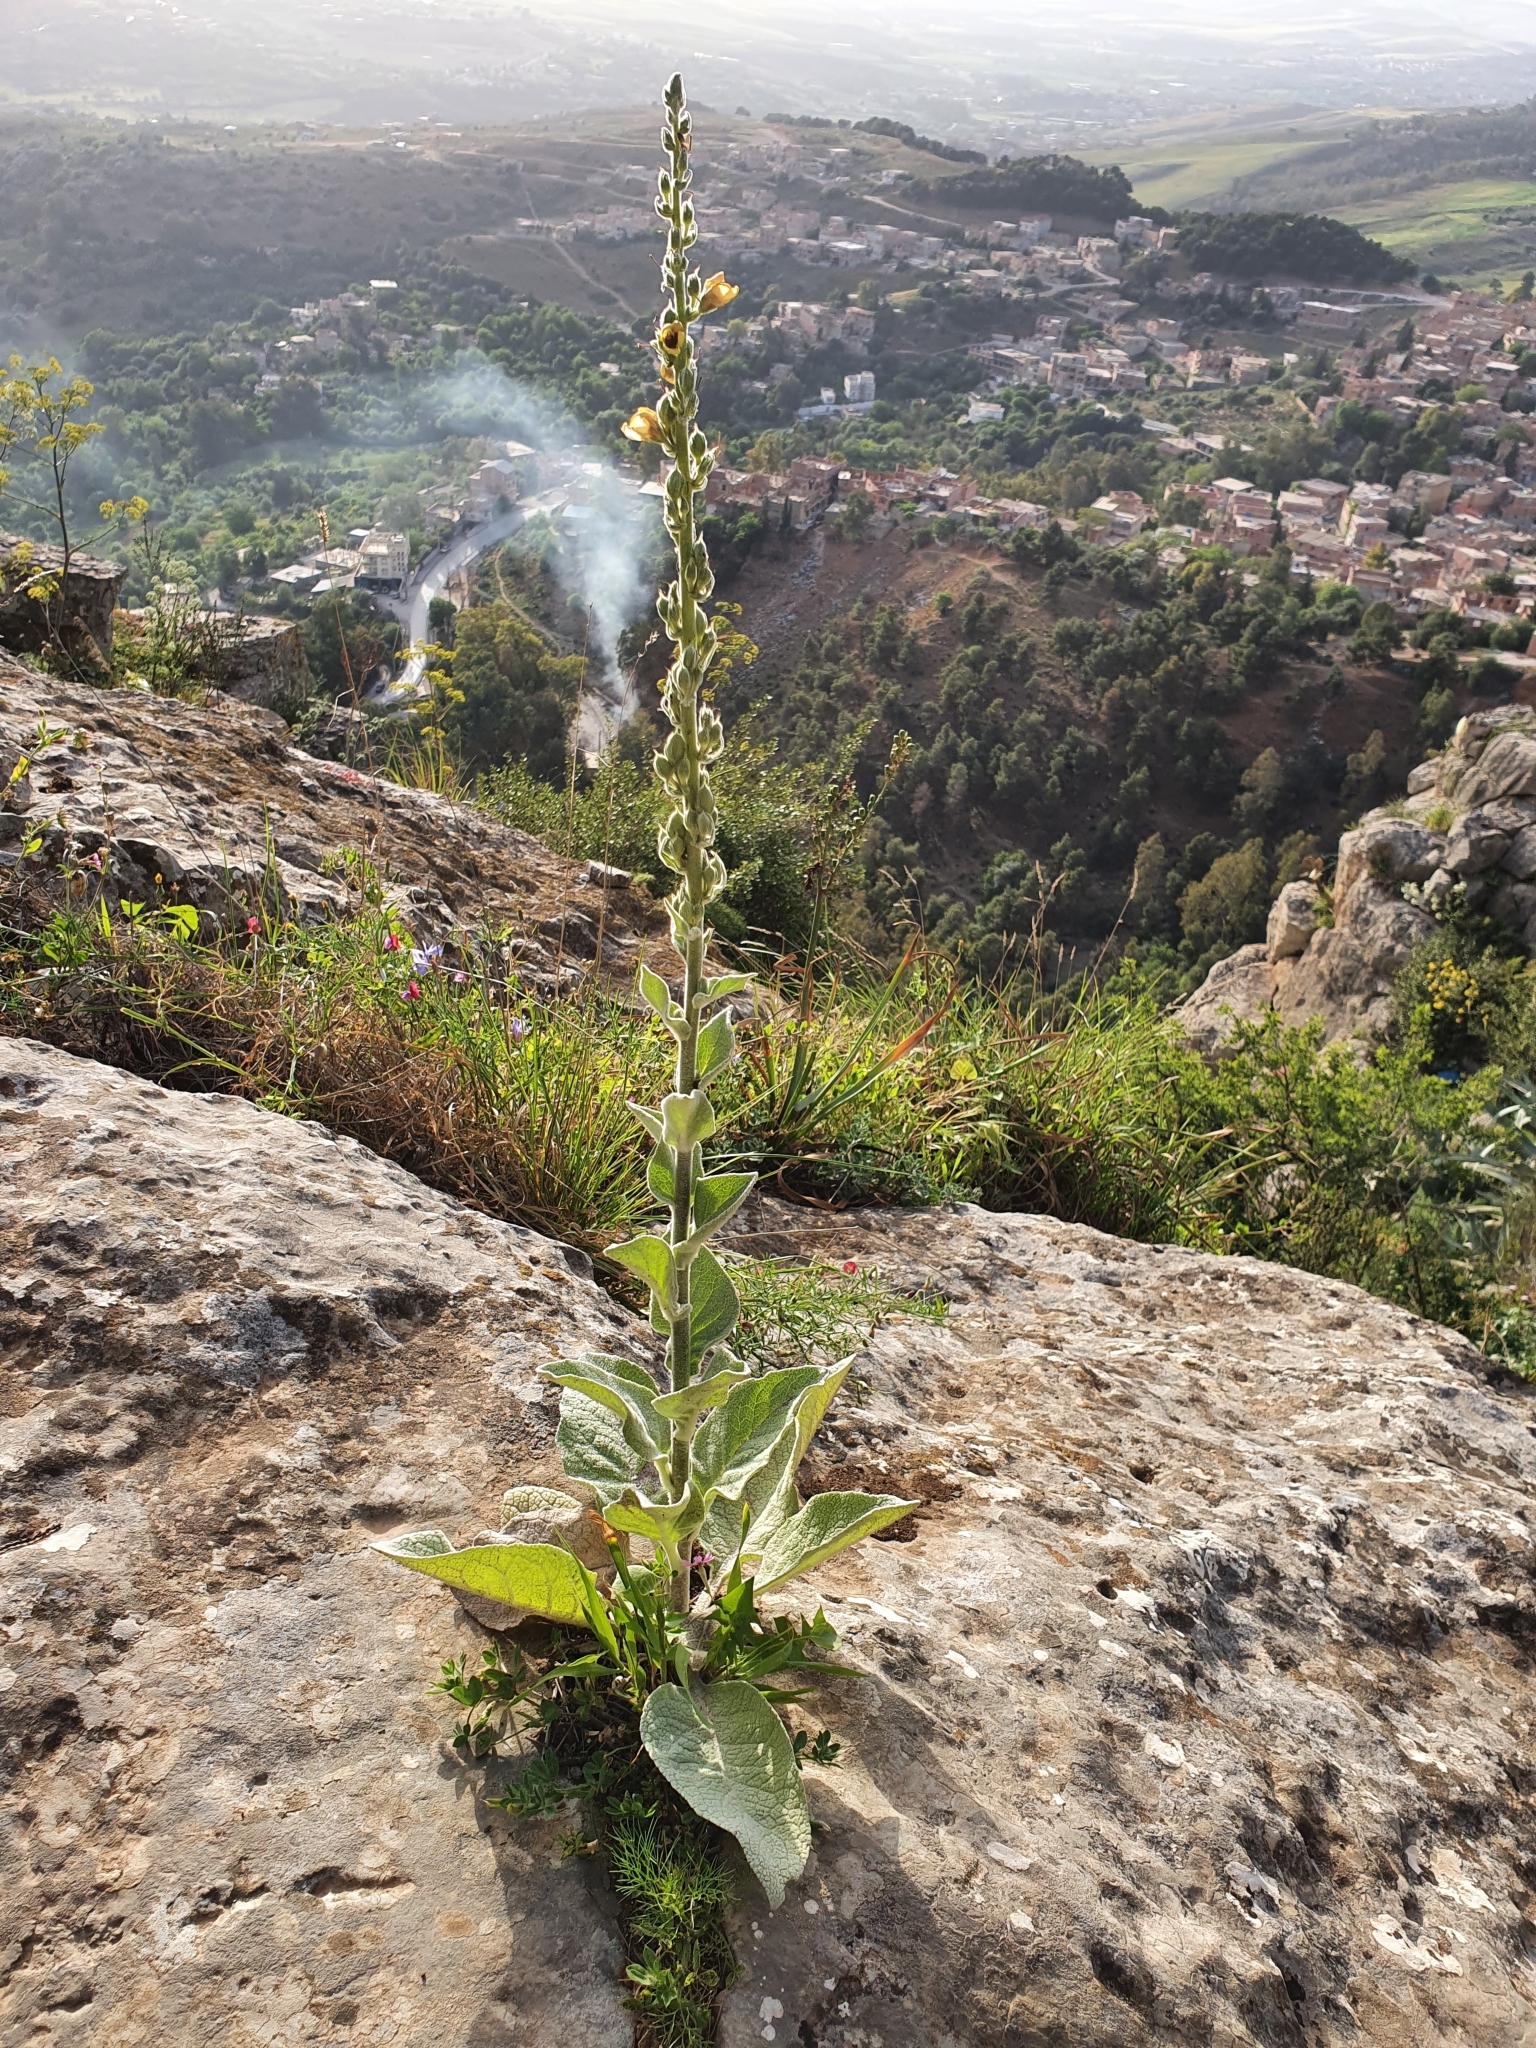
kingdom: Plantae
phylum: Tracheophyta
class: Magnoliopsida
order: Lamiales
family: Scrophulariaceae
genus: Verbascum
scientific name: Verbascum rotundifolium
